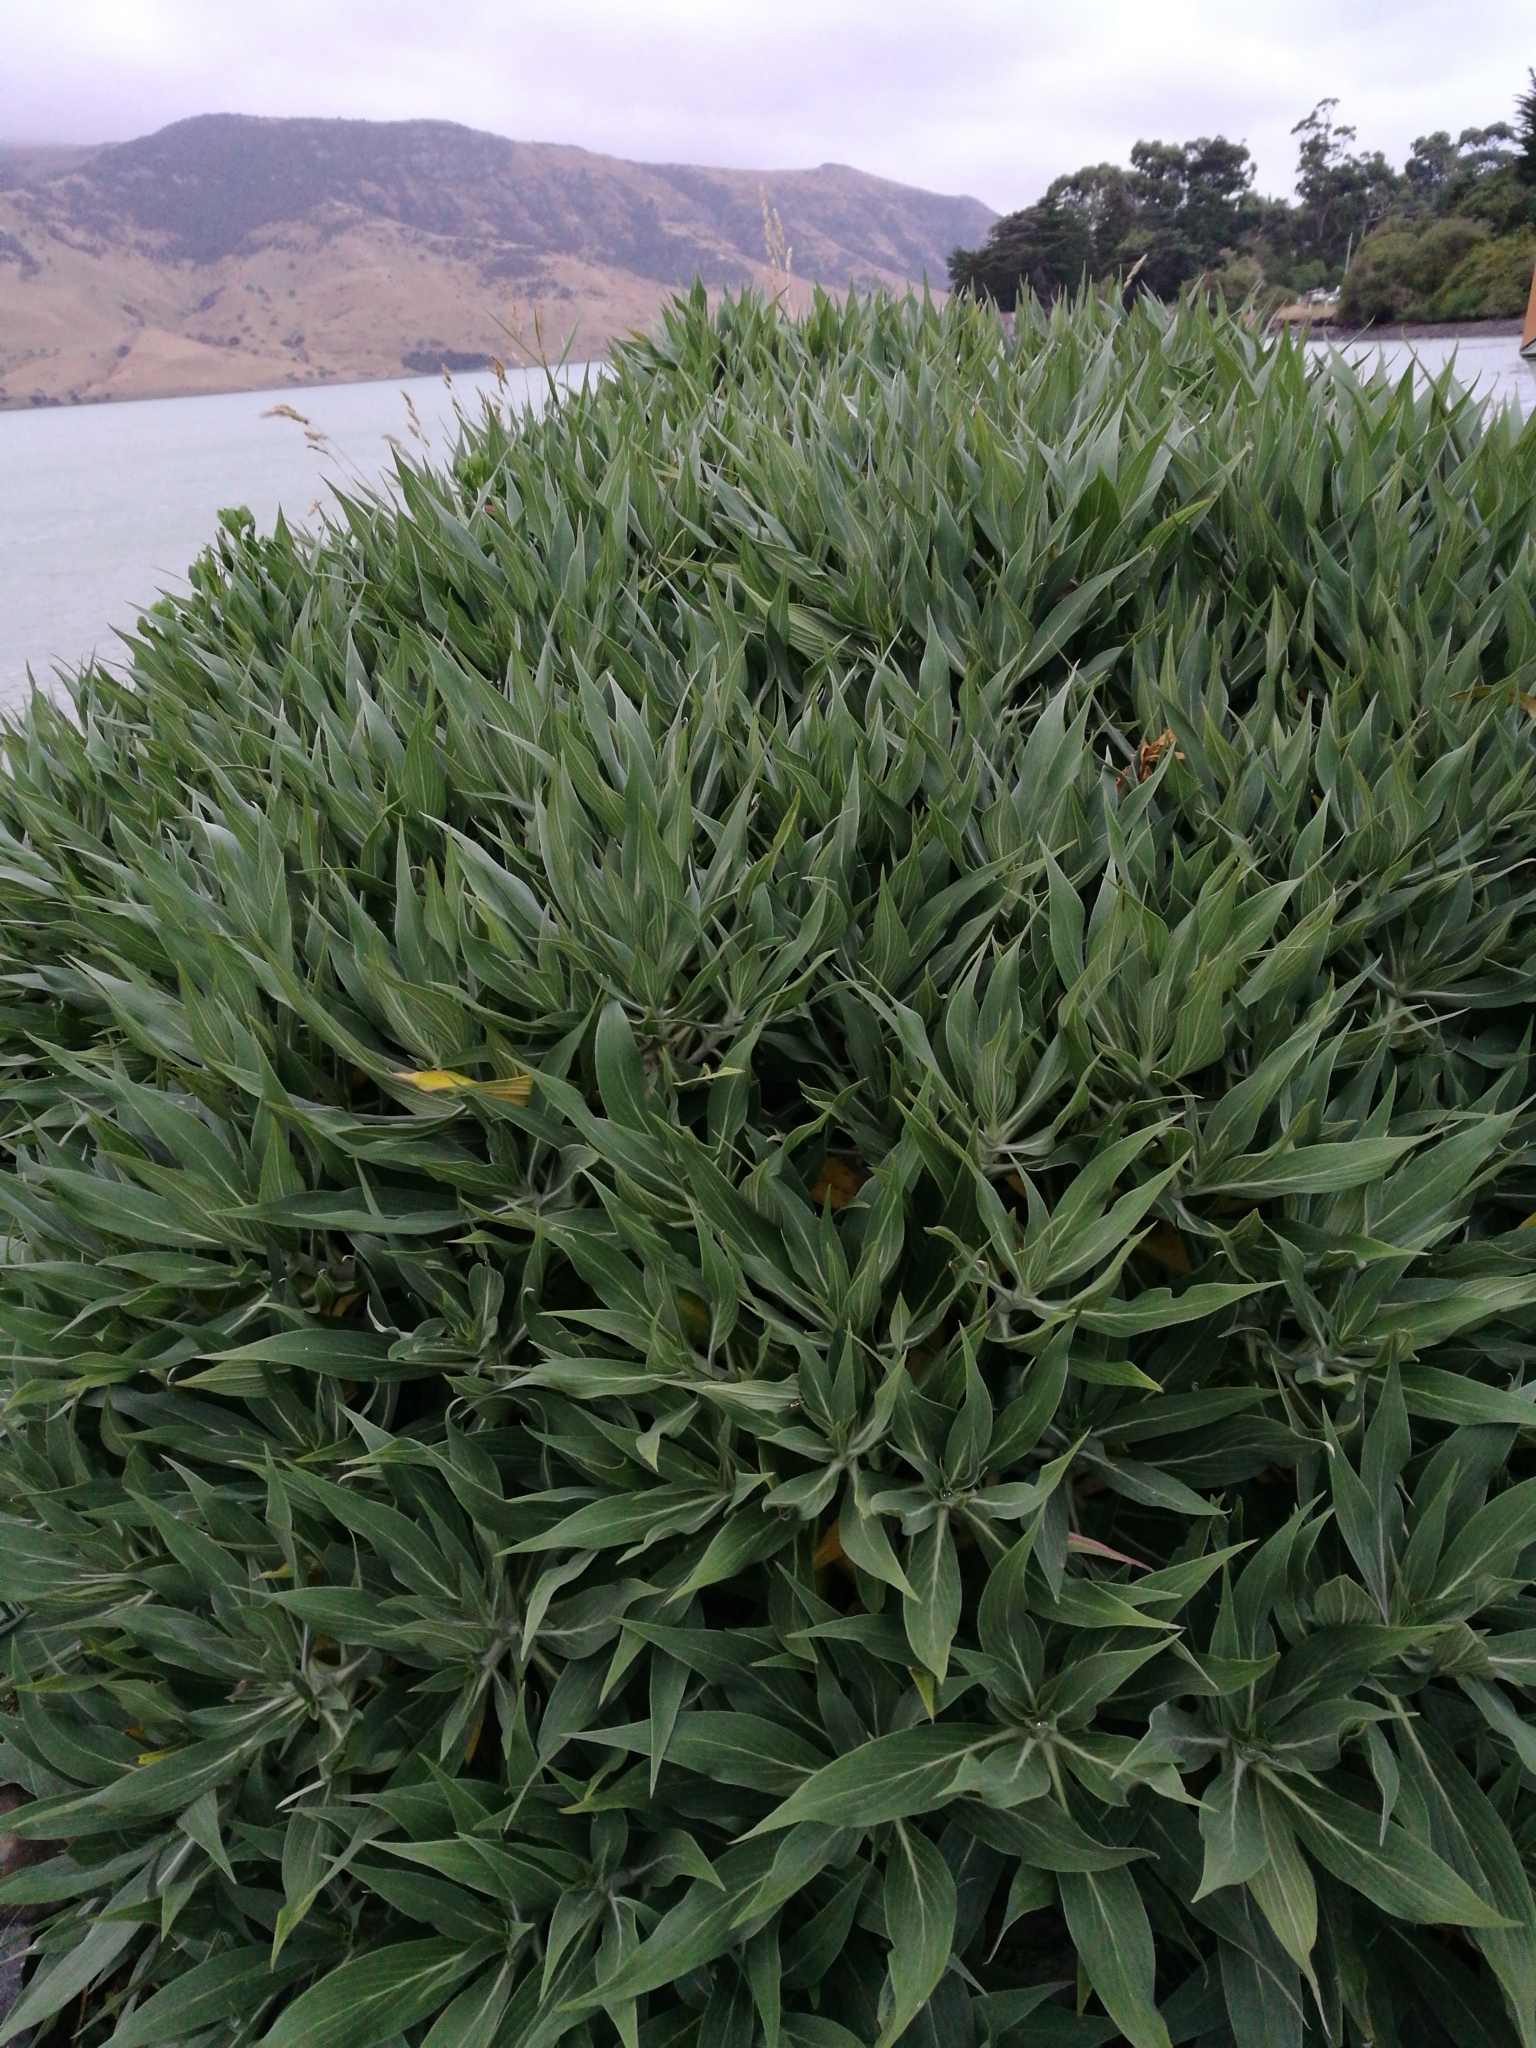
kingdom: Plantae
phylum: Tracheophyta
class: Magnoliopsida
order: Boraginales
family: Boraginaceae
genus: Echium
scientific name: Echium candicans
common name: Pride of madeira
